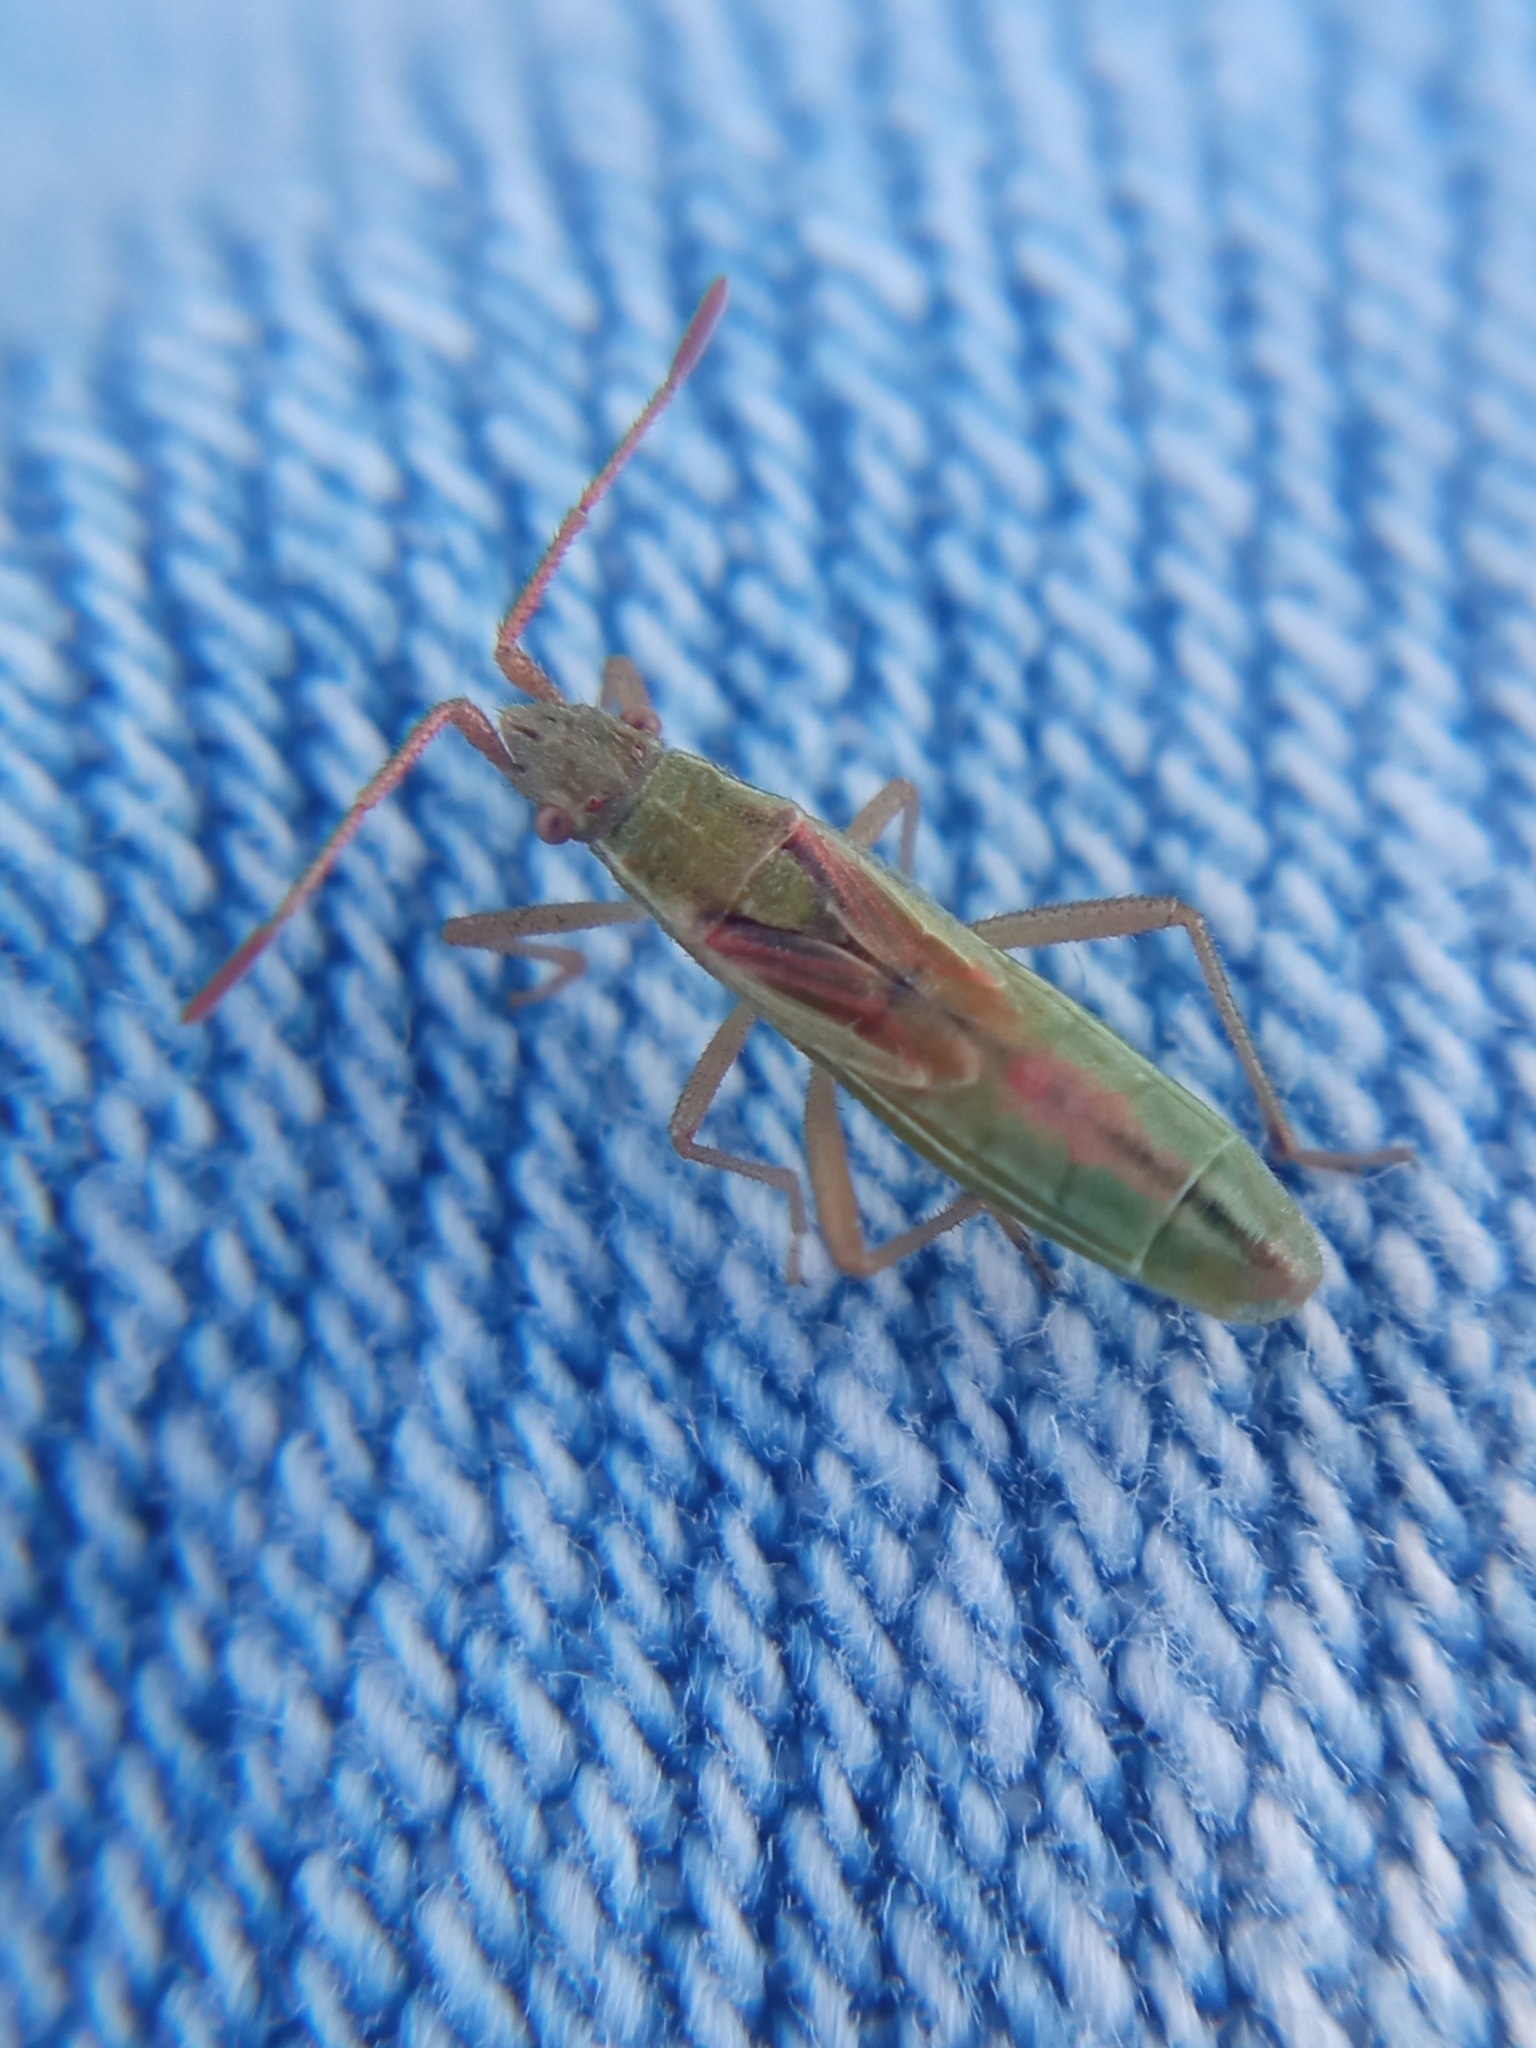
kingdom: Animalia
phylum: Arthropoda
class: Insecta
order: Hemiptera
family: Rhopalidae
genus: Myrmus
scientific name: Myrmus miriformis
